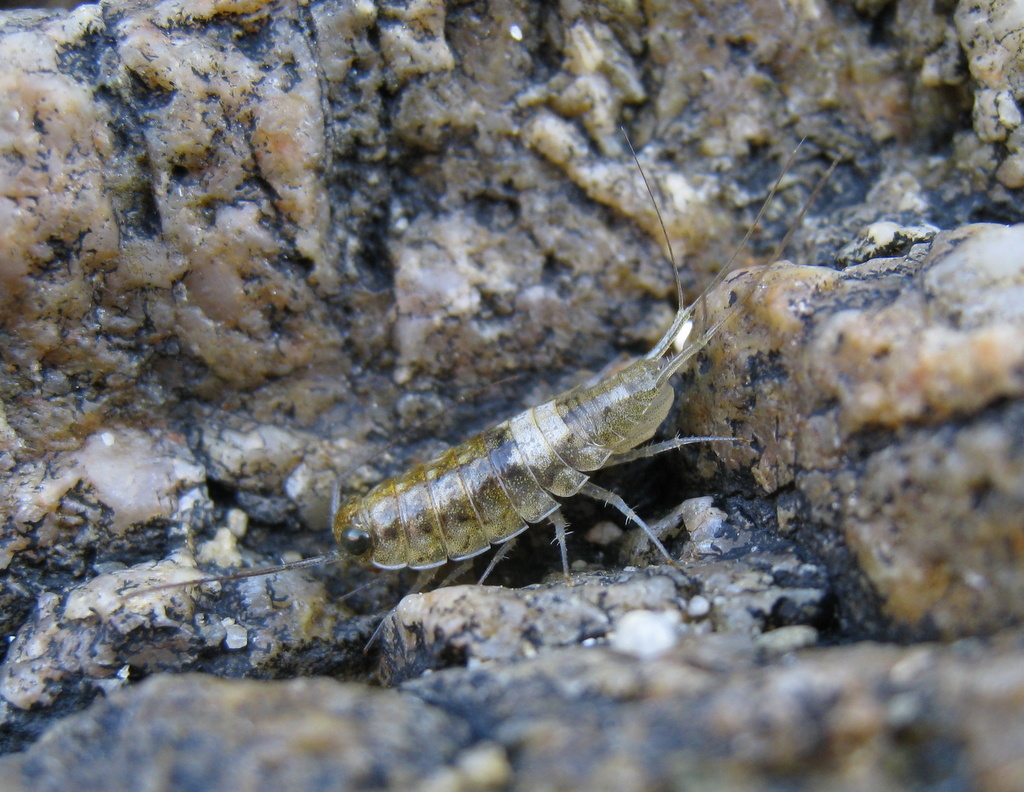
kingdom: Animalia
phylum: Arthropoda
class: Malacostraca
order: Isopoda
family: Ligiidae
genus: Ligia
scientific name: Ligia italica
